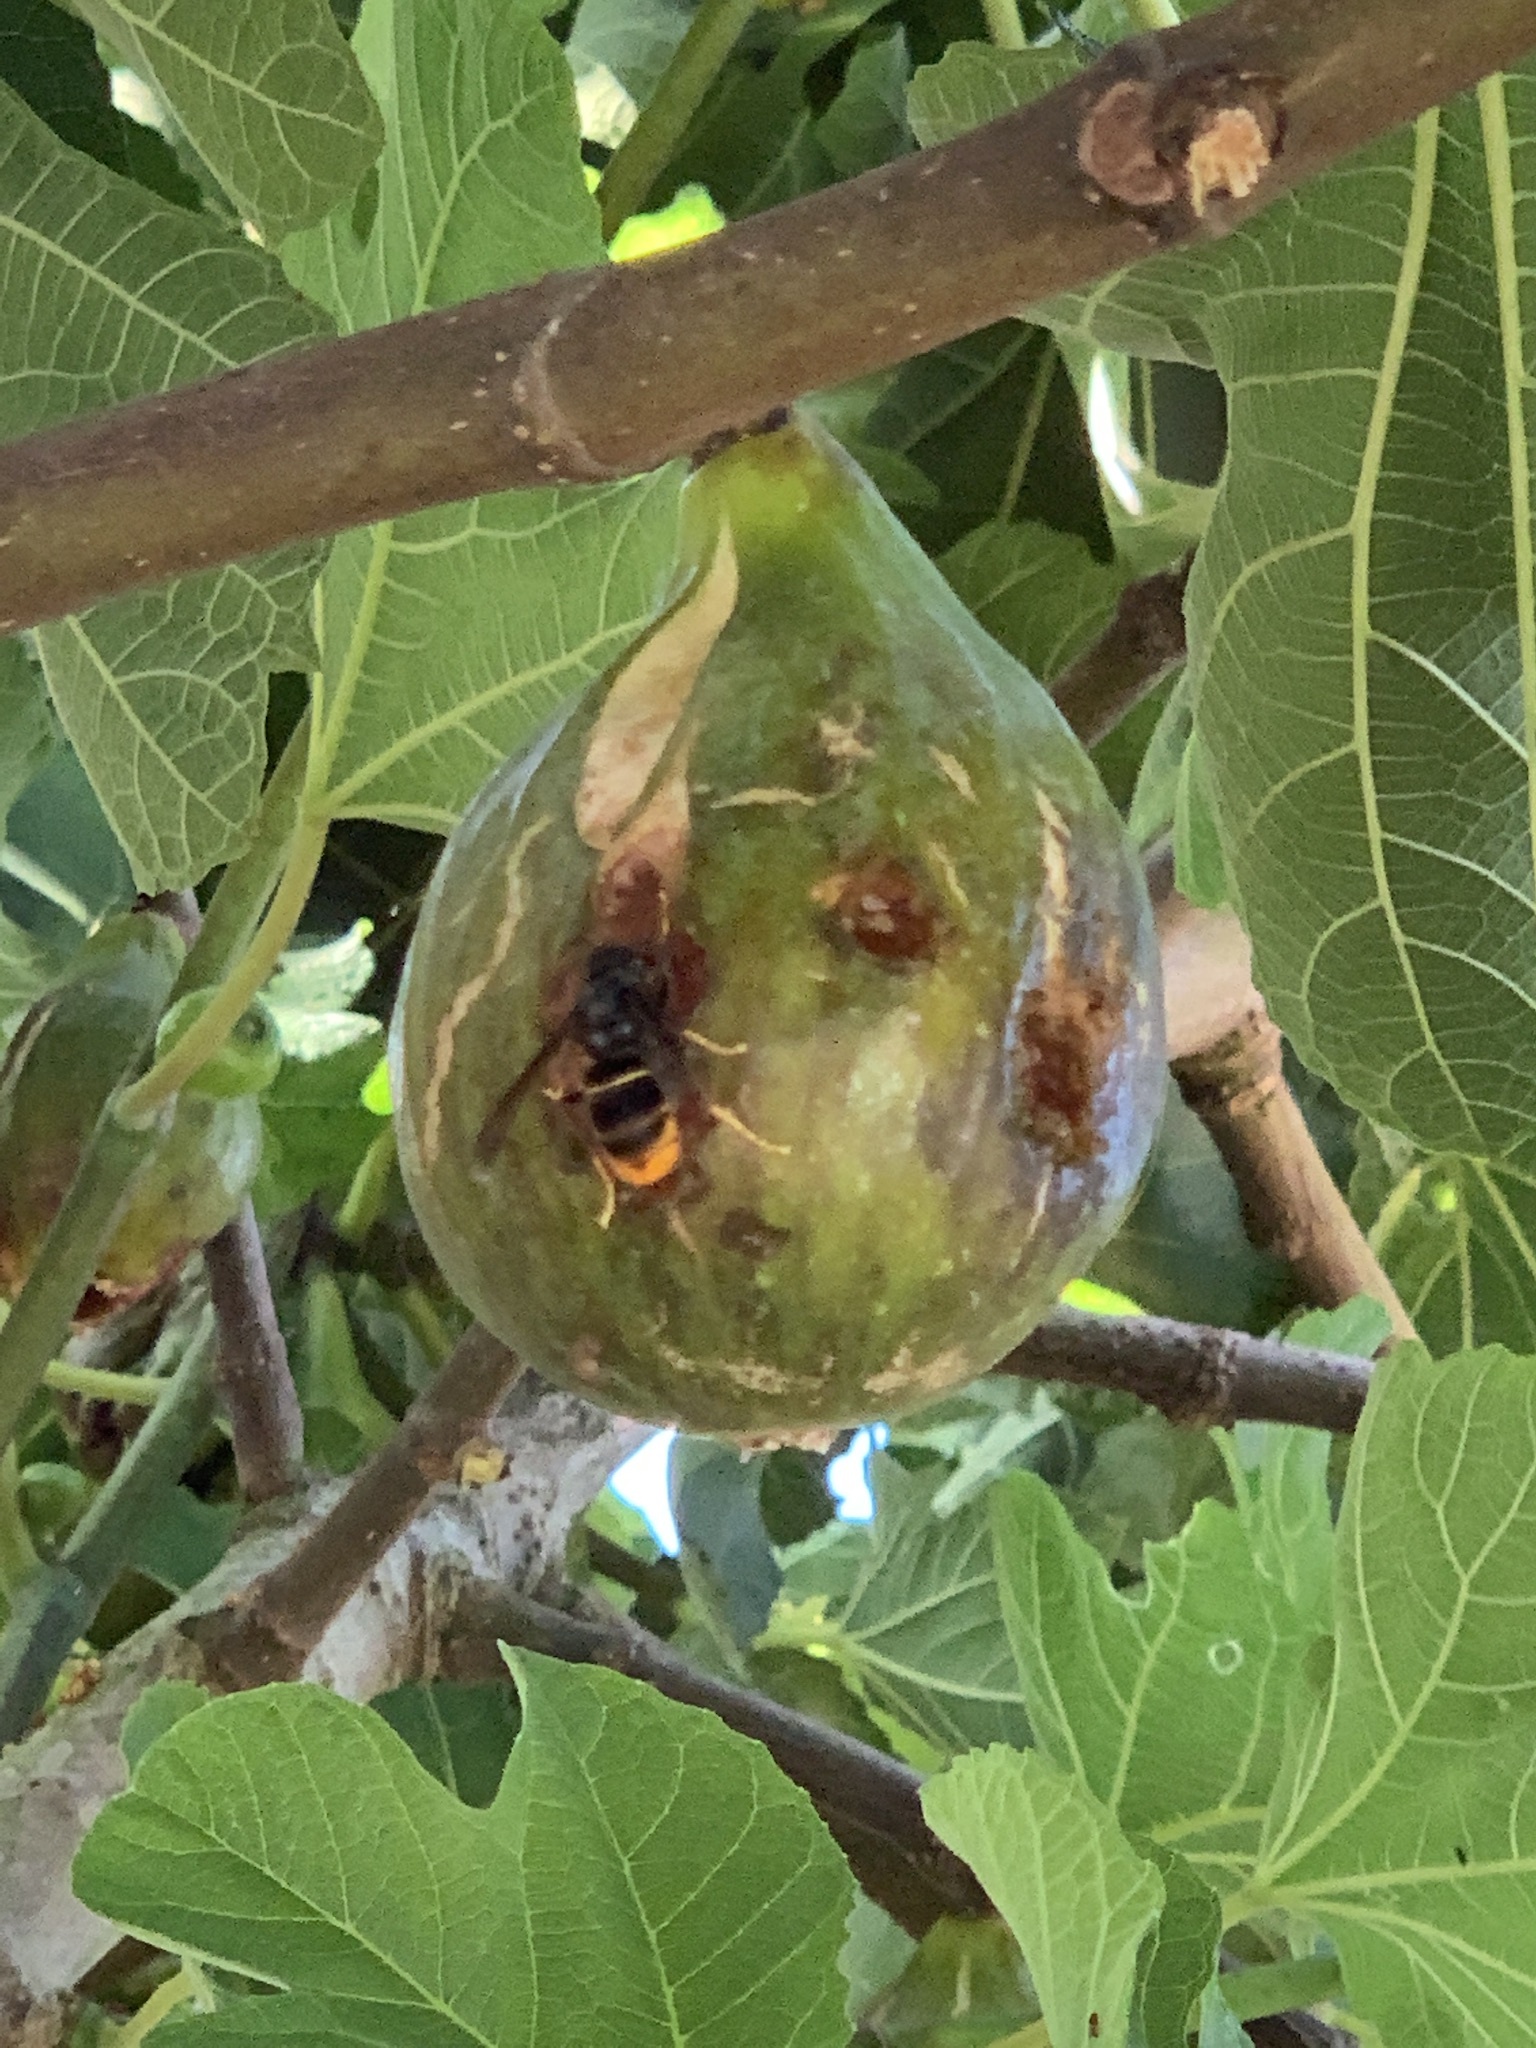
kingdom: Animalia
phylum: Arthropoda
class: Insecta
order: Hymenoptera
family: Vespidae
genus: Vespa
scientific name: Vespa velutina
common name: Asian hornet
